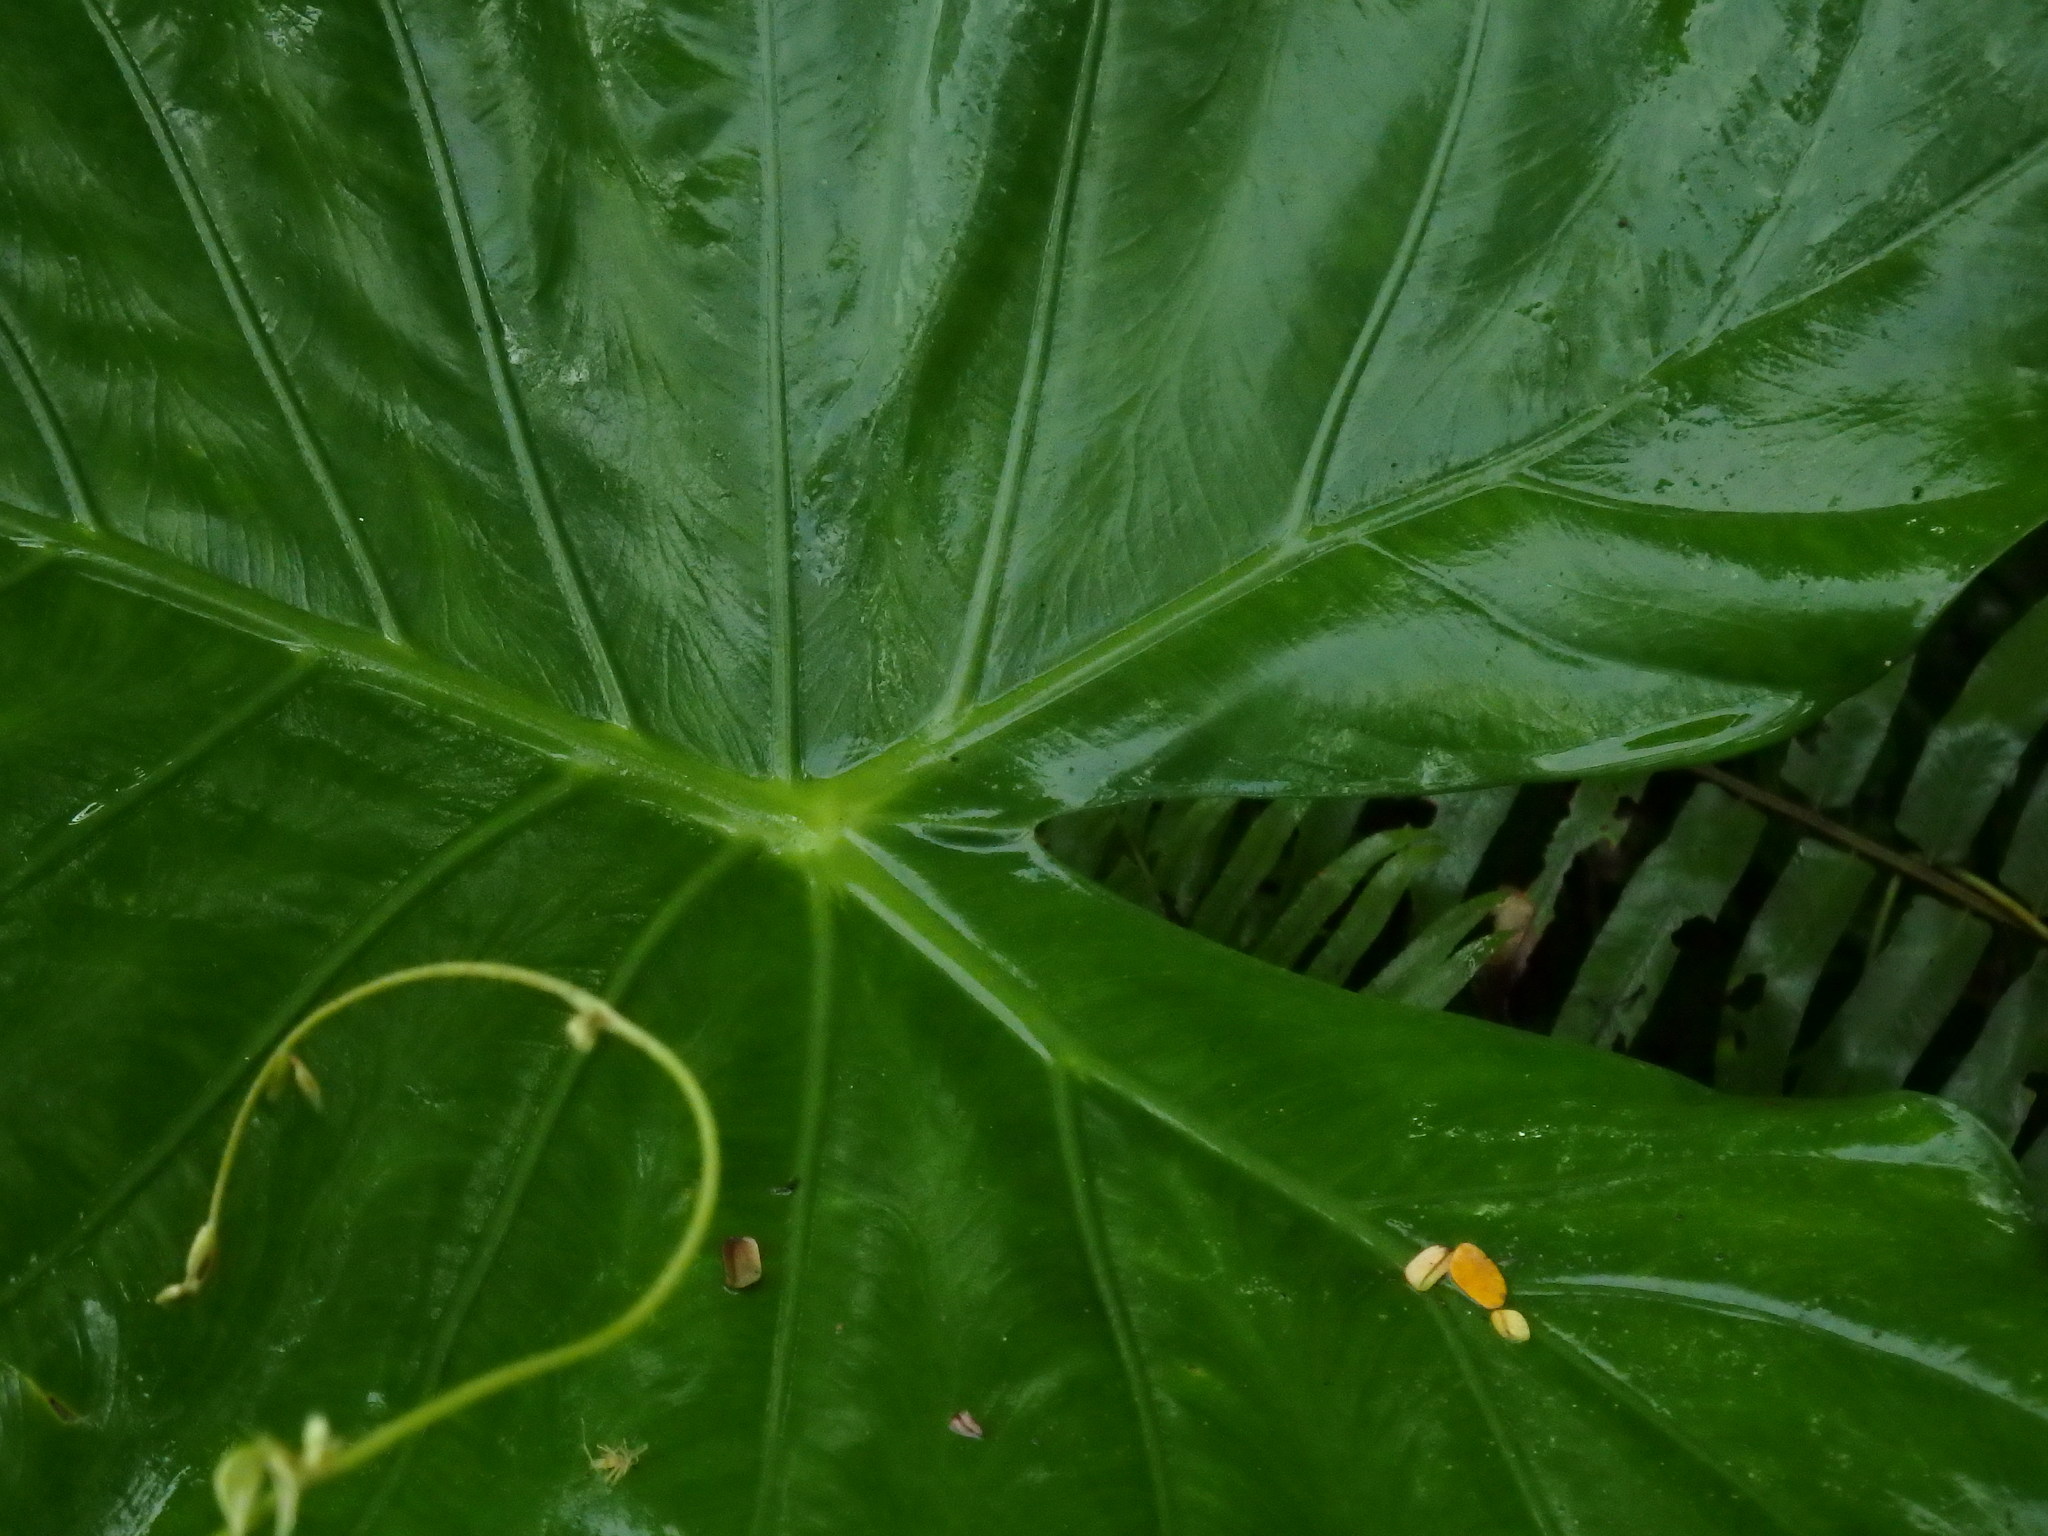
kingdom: Plantae
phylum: Tracheophyta
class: Liliopsida
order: Alismatales
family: Araceae
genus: Alocasia
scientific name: Alocasia odora
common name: Asian taro
